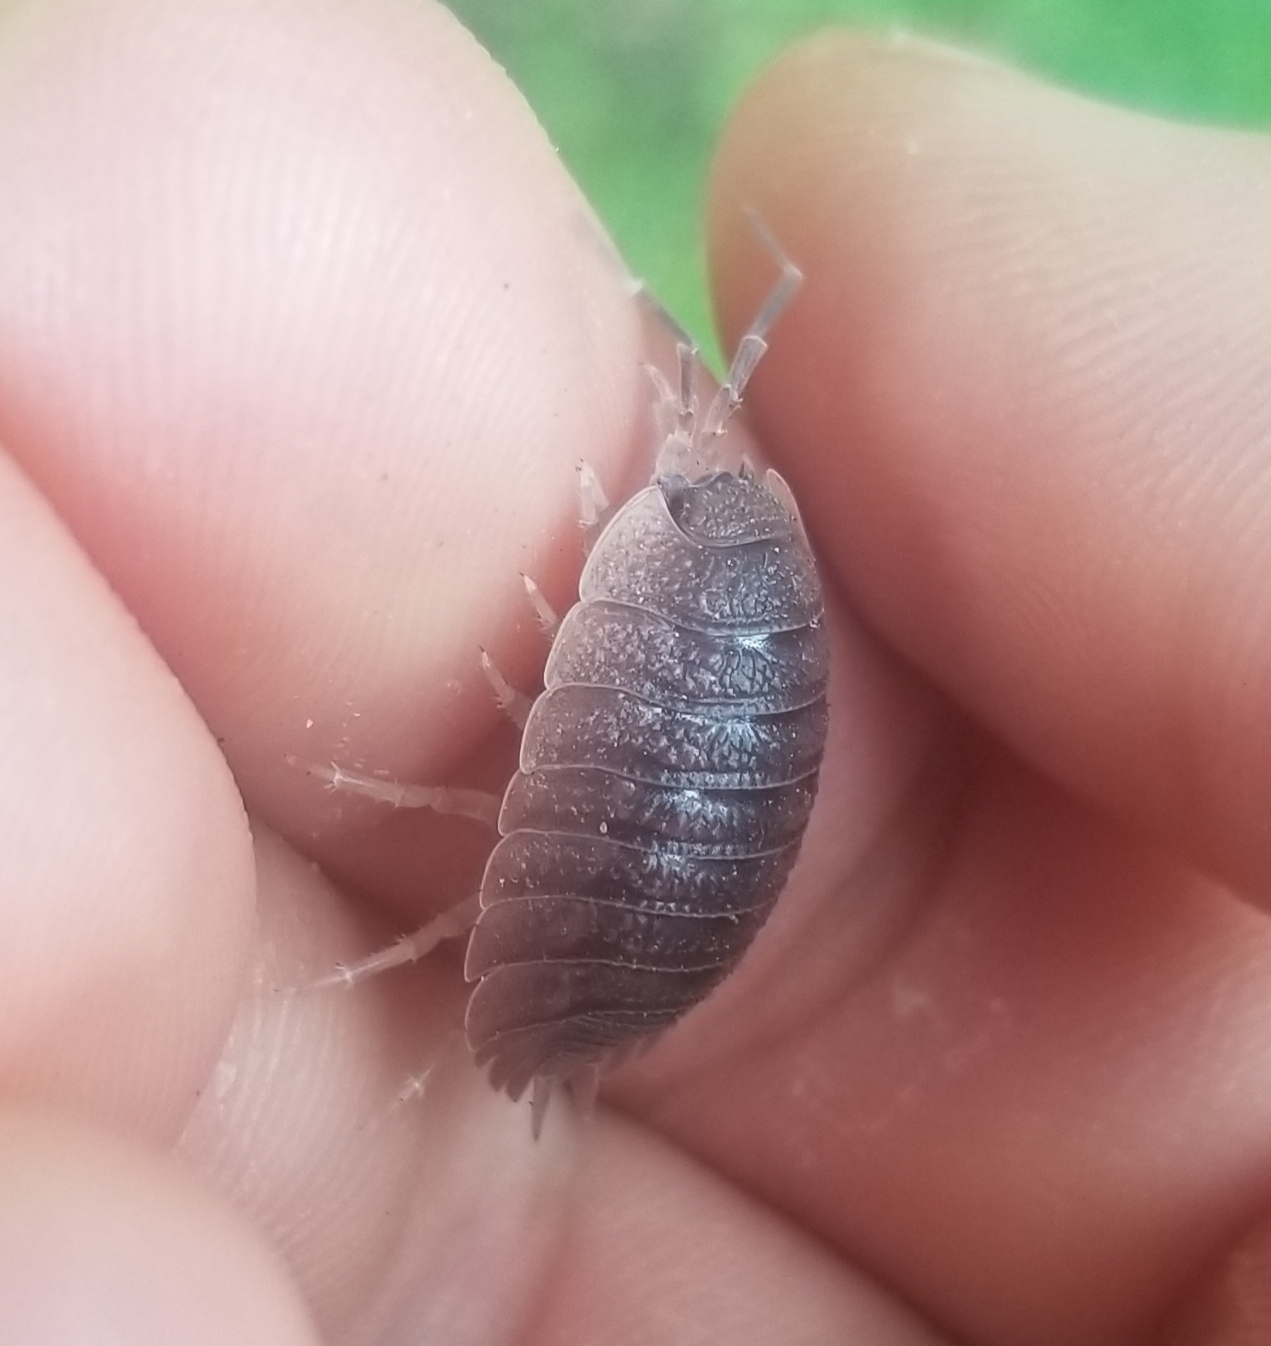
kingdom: Animalia
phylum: Arthropoda
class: Malacostraca
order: Isopoda
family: Porcellionidae
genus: Porcellio
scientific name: Porcellio dilatatus
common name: Isopod
